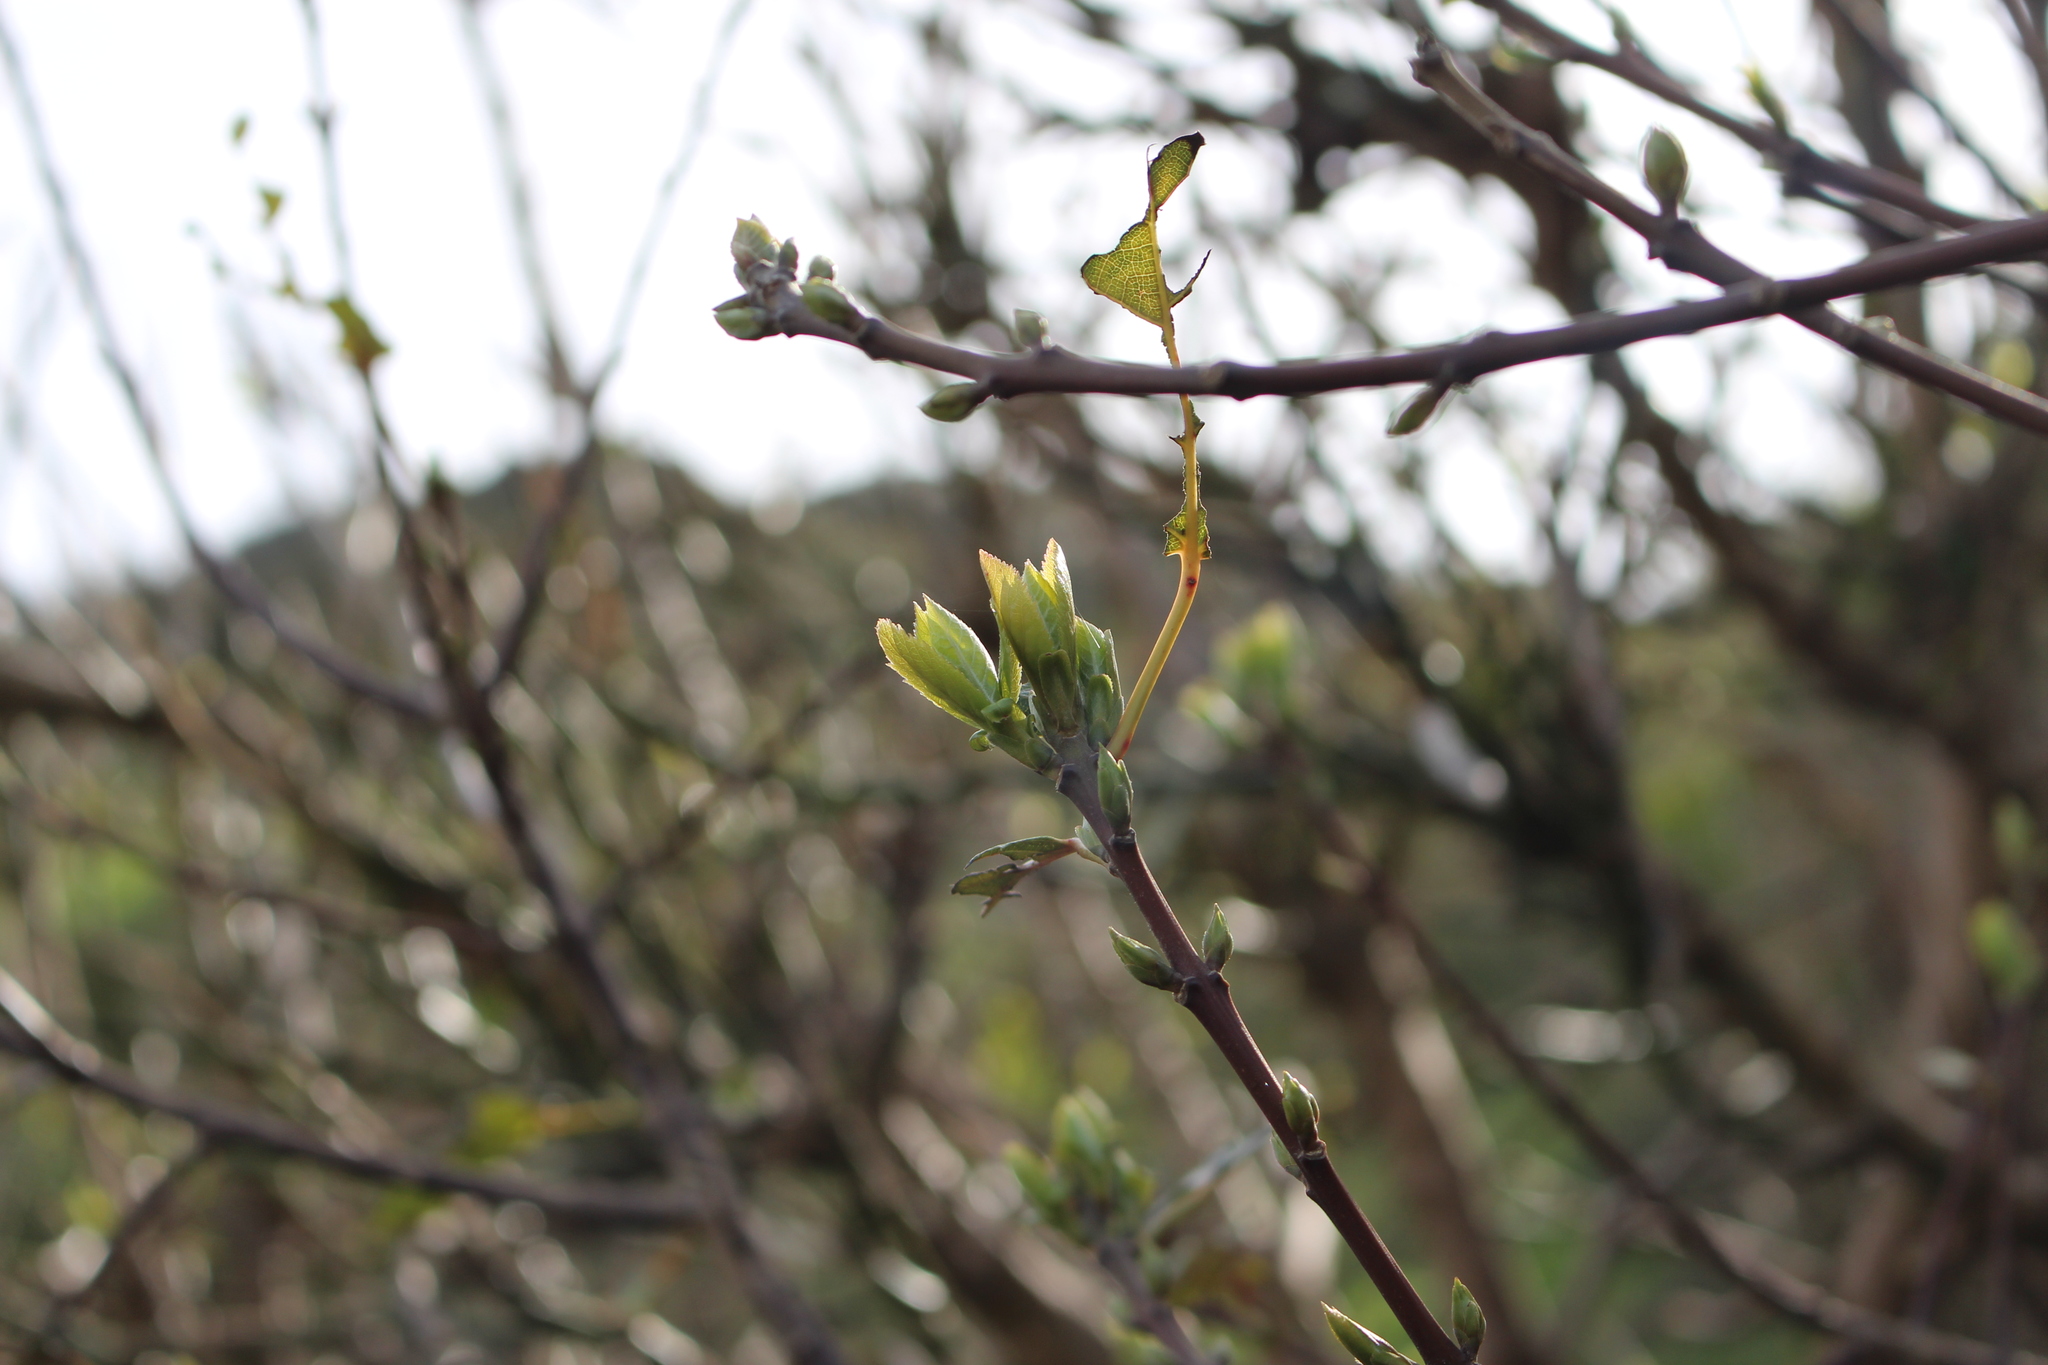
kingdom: Plantae
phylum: Tracheophyta
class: Magnoliopsida
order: Oxalidales
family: Elaeocarpaceae
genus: Aristotelia
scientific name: Aristotelia serrata
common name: New zealand wineberry
